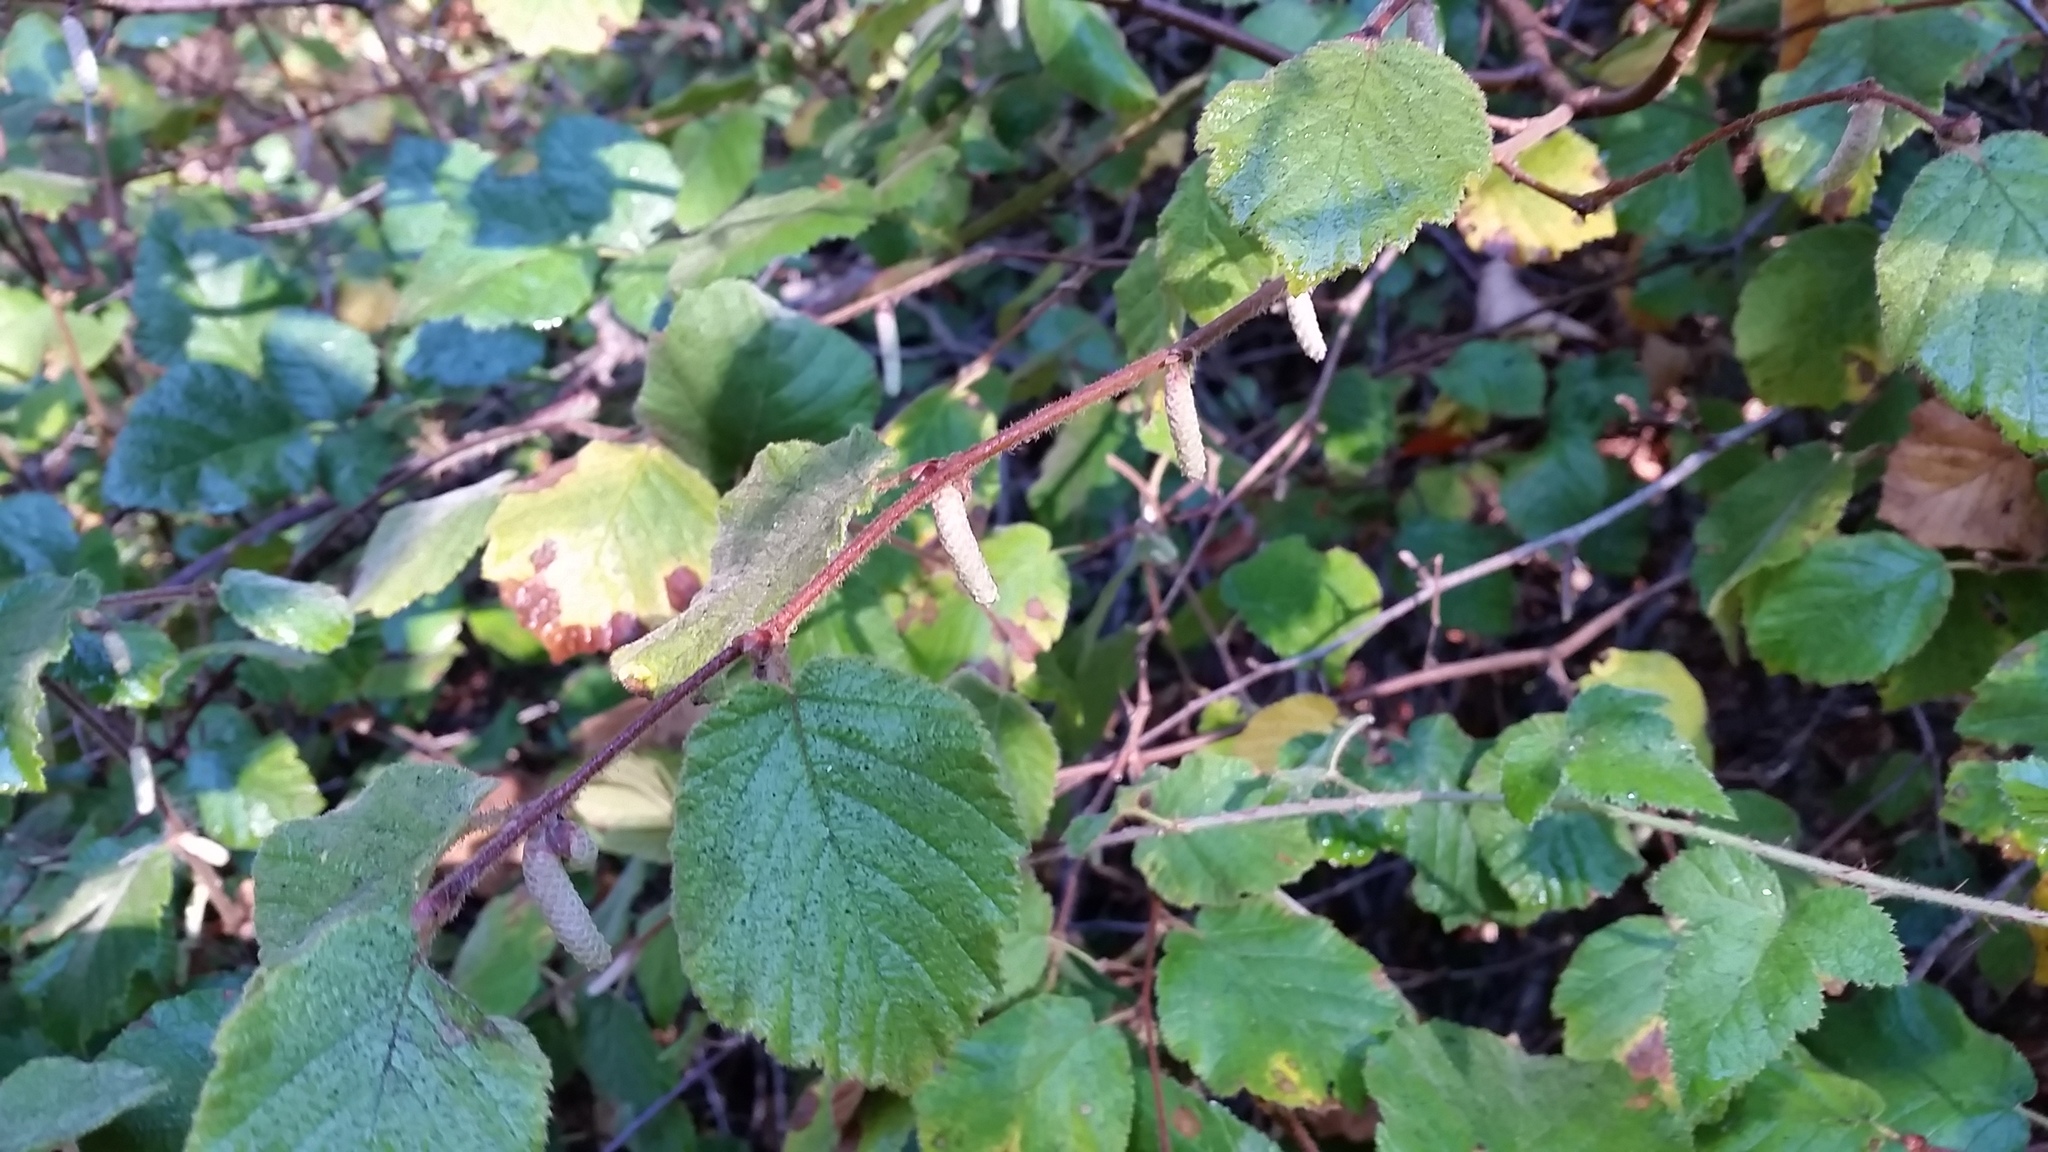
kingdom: Plantae
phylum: Tracheophyta
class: Magnoliopsida
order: Fagales
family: Betulaceae
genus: Corylus
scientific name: Corylus cornuta
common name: Beaked hazel
